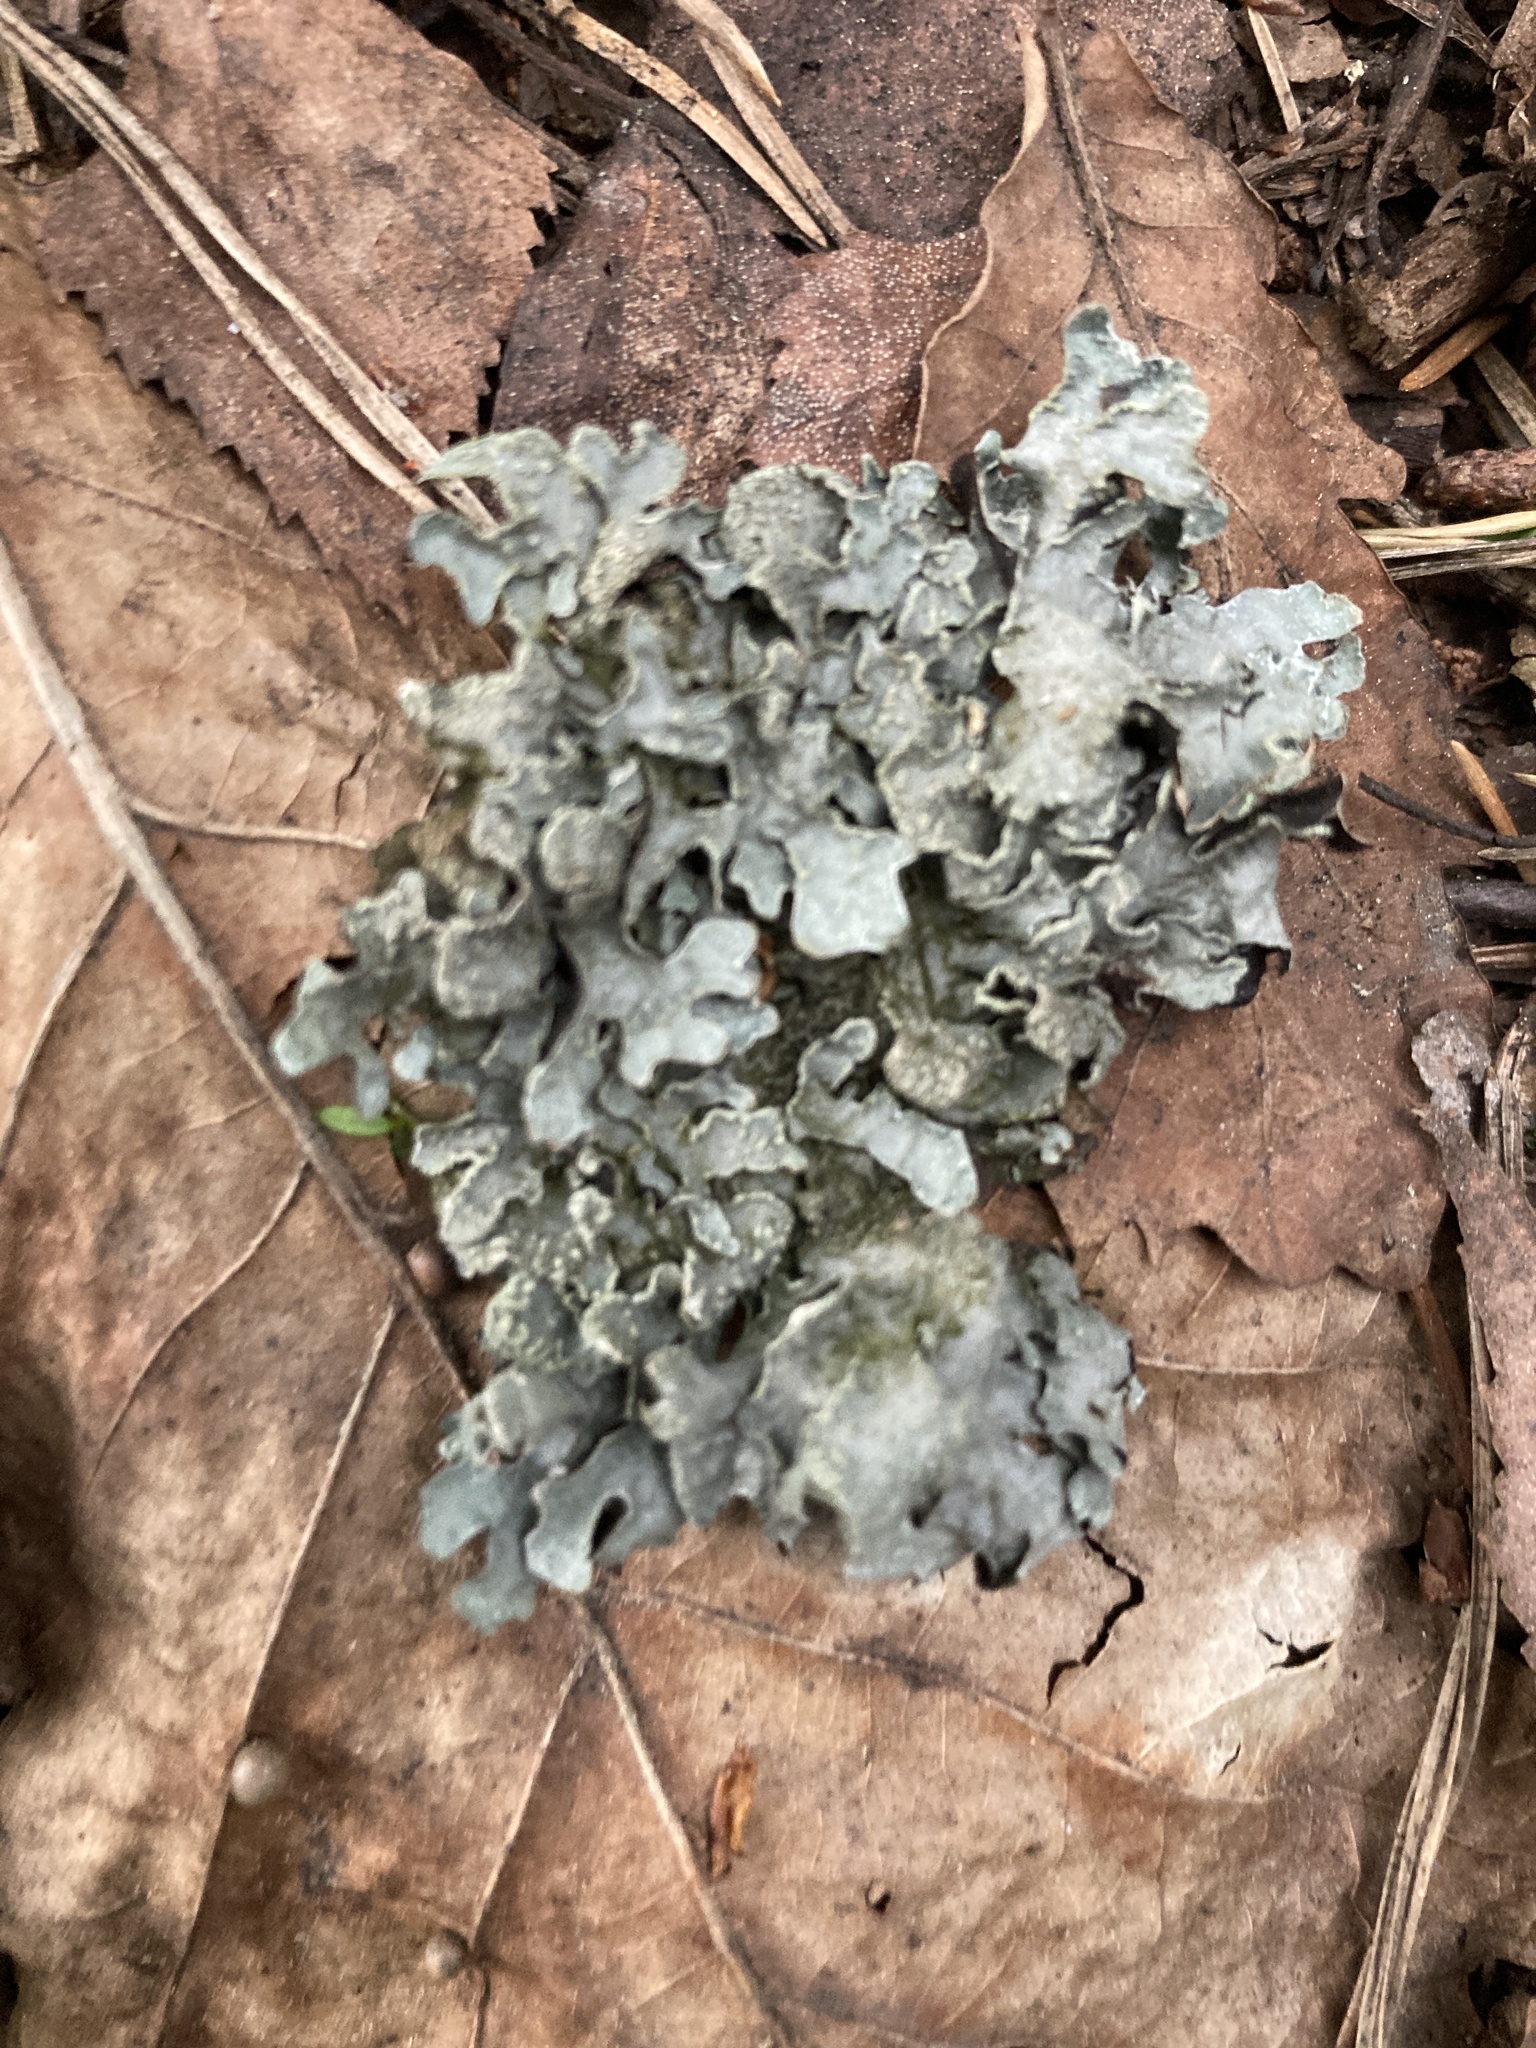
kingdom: Fungi
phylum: Ascomycota
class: Lecanoromycetes
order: Lecanorales
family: Parmeliaceae
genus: Parmelia
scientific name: Parmelia sulcata
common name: Netted shield lichen
